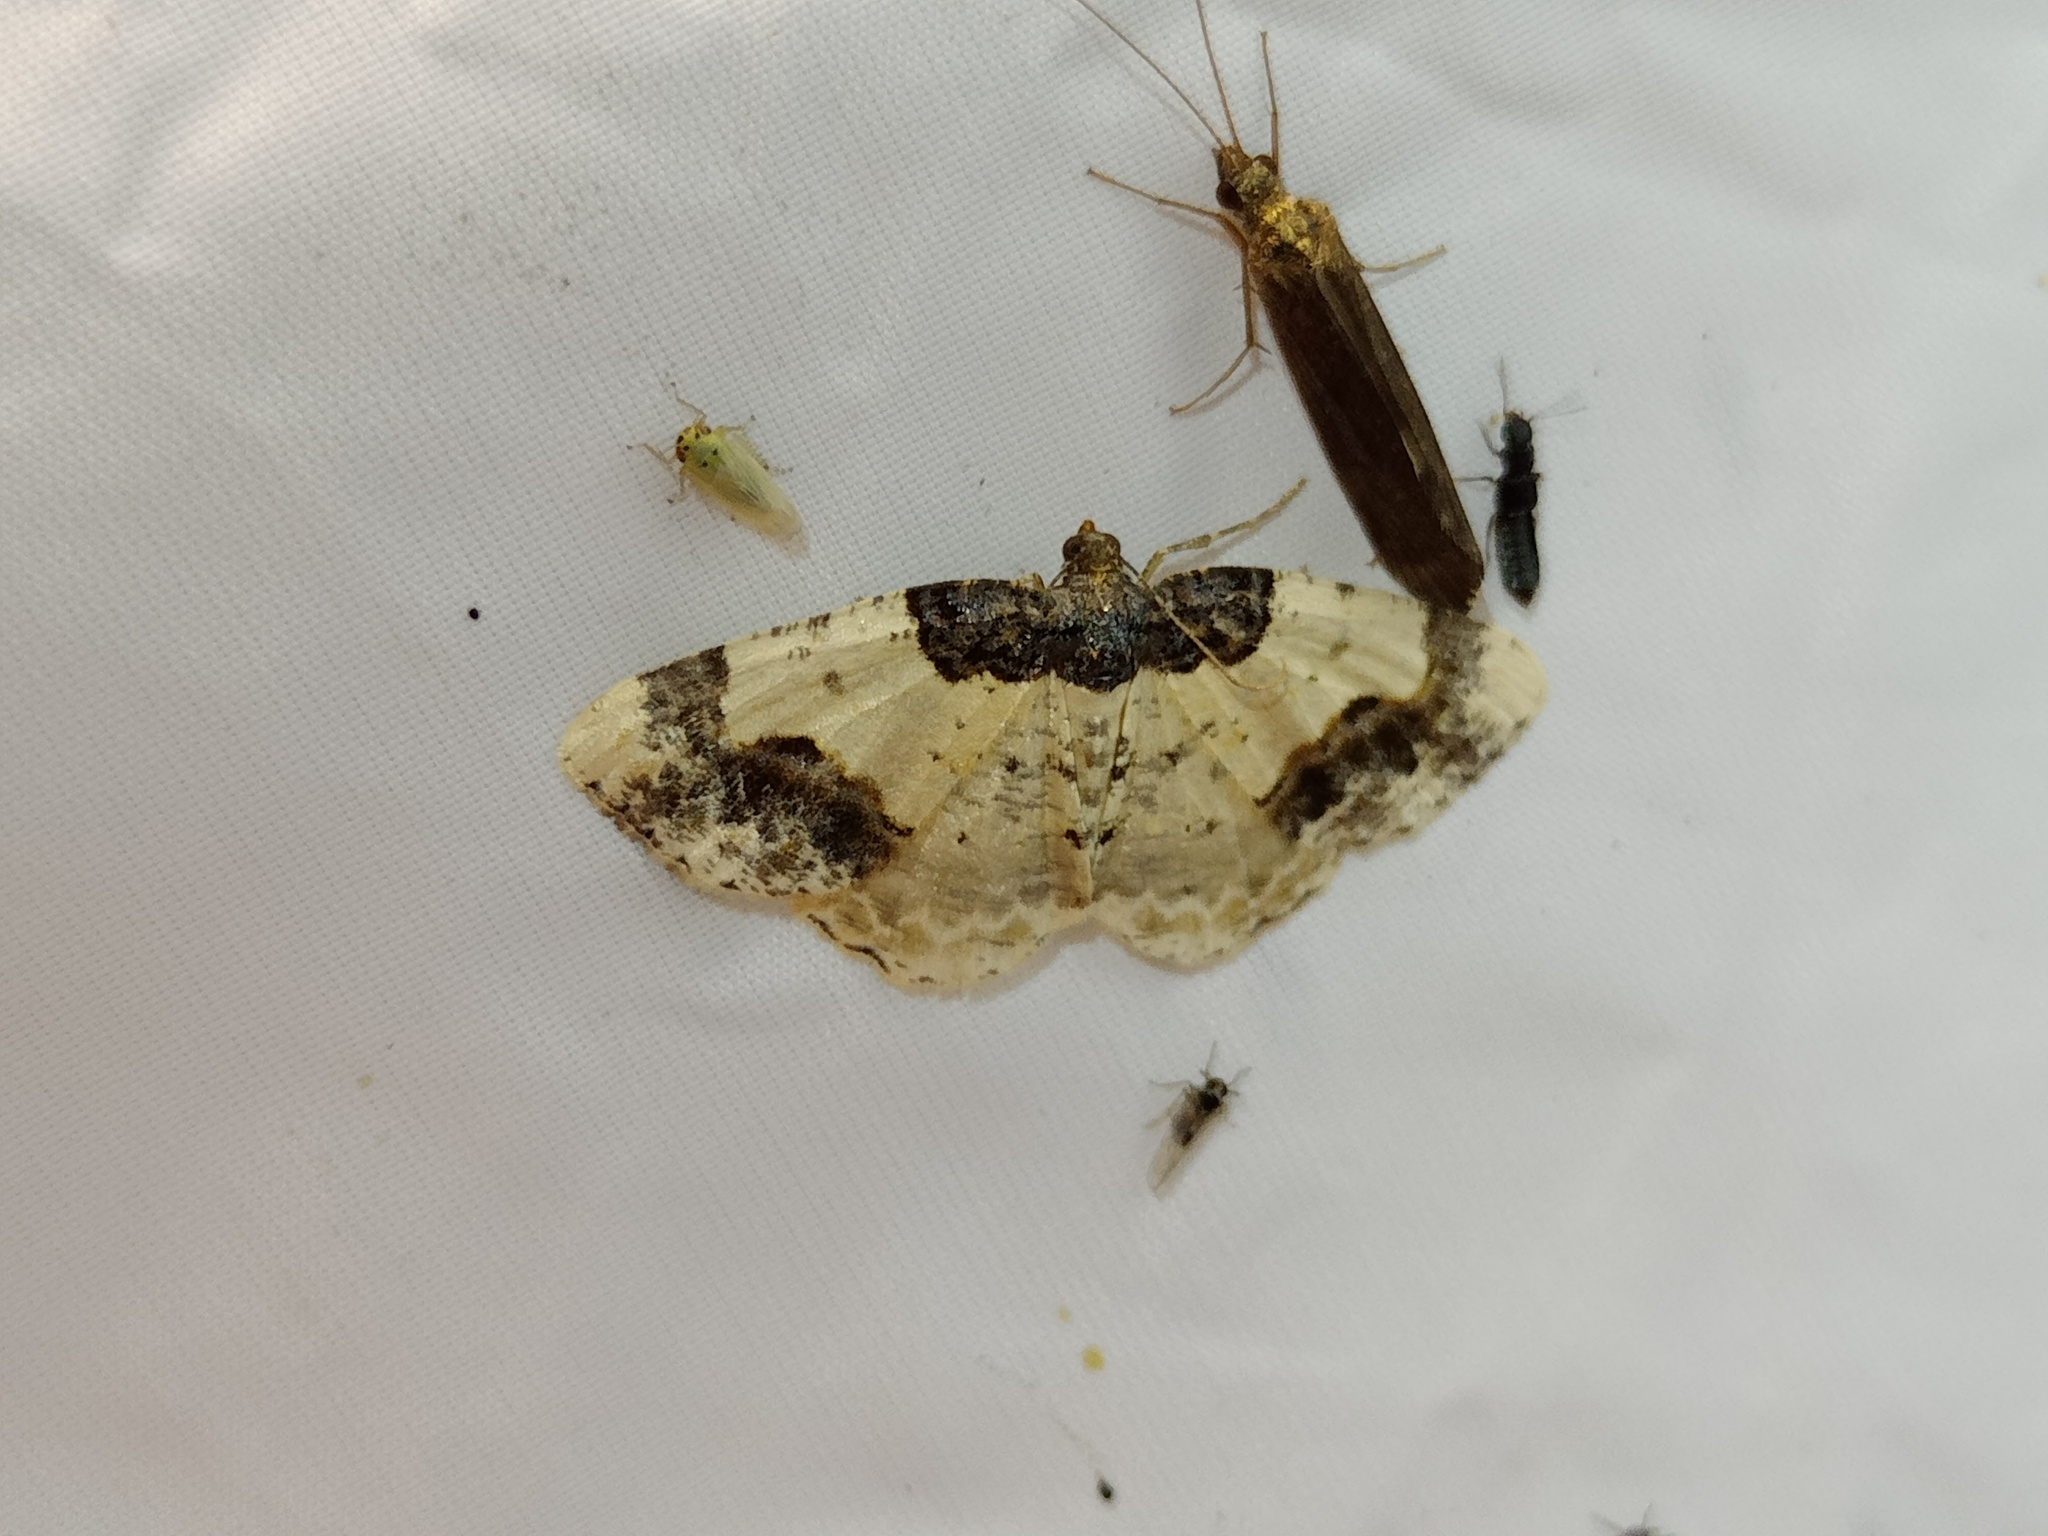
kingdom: Animalia
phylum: Arthropoda
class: Insecta
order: Lepidoptera
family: Geometridae
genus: Ligdia
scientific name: Ligdia adustata
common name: Scorched carpet
